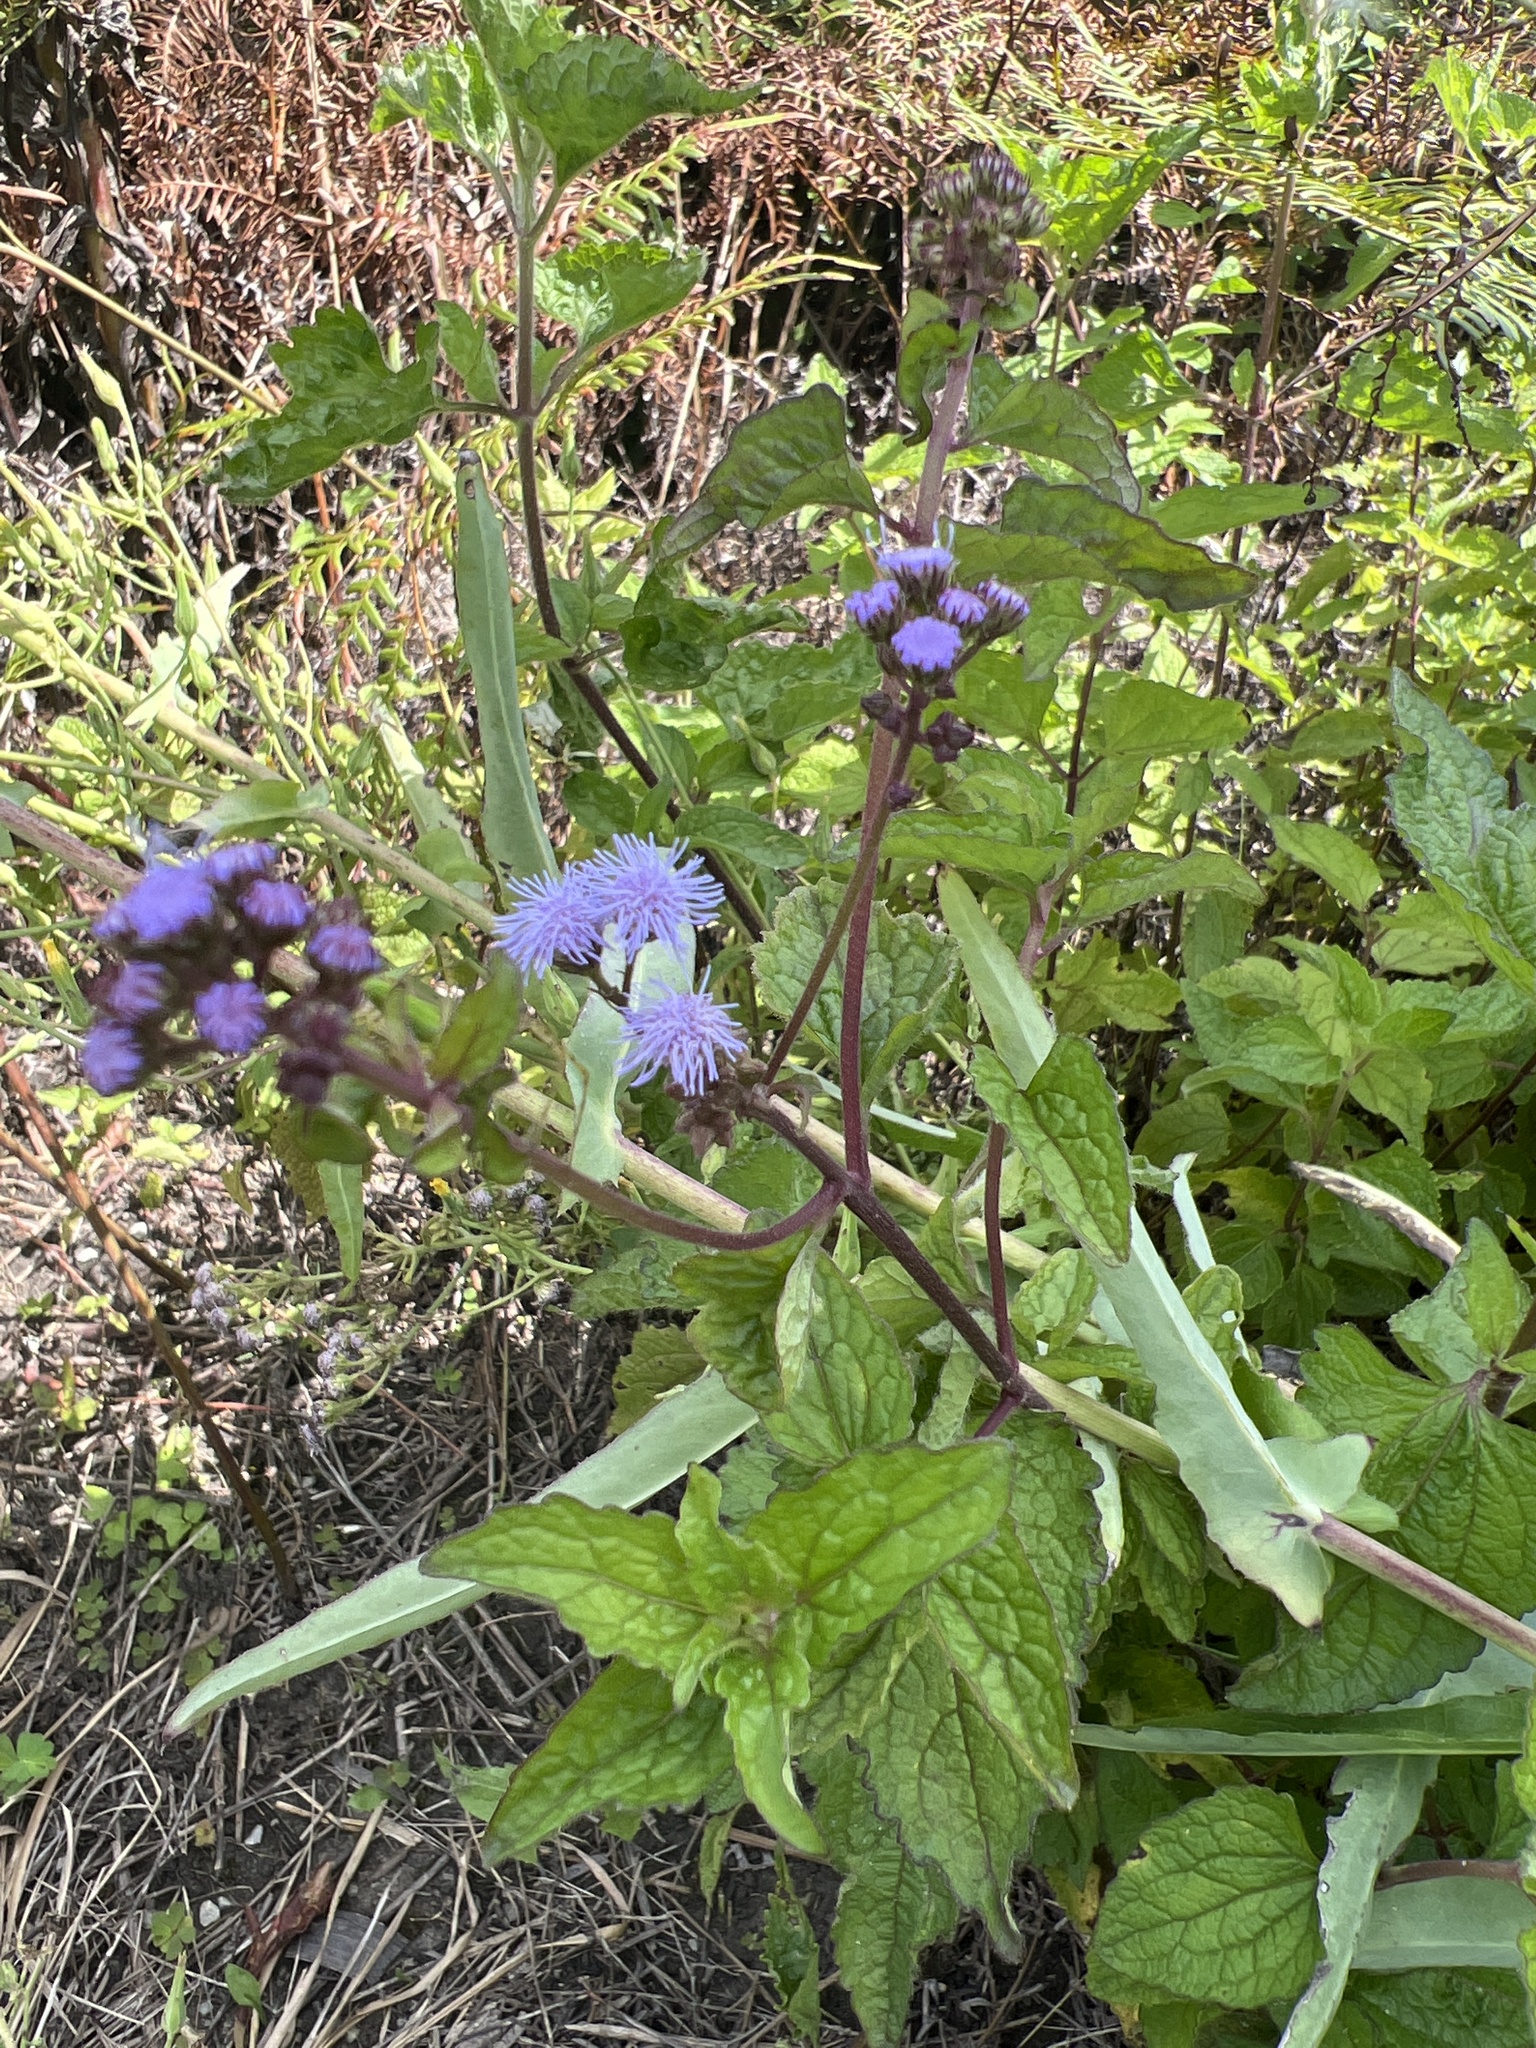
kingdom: Plantae
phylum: Tracheophyta
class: Magnoliopsida
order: Asterales
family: Asteraceae
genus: Conoclinium
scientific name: Conoclinium coelestinum
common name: Blue mistflower
